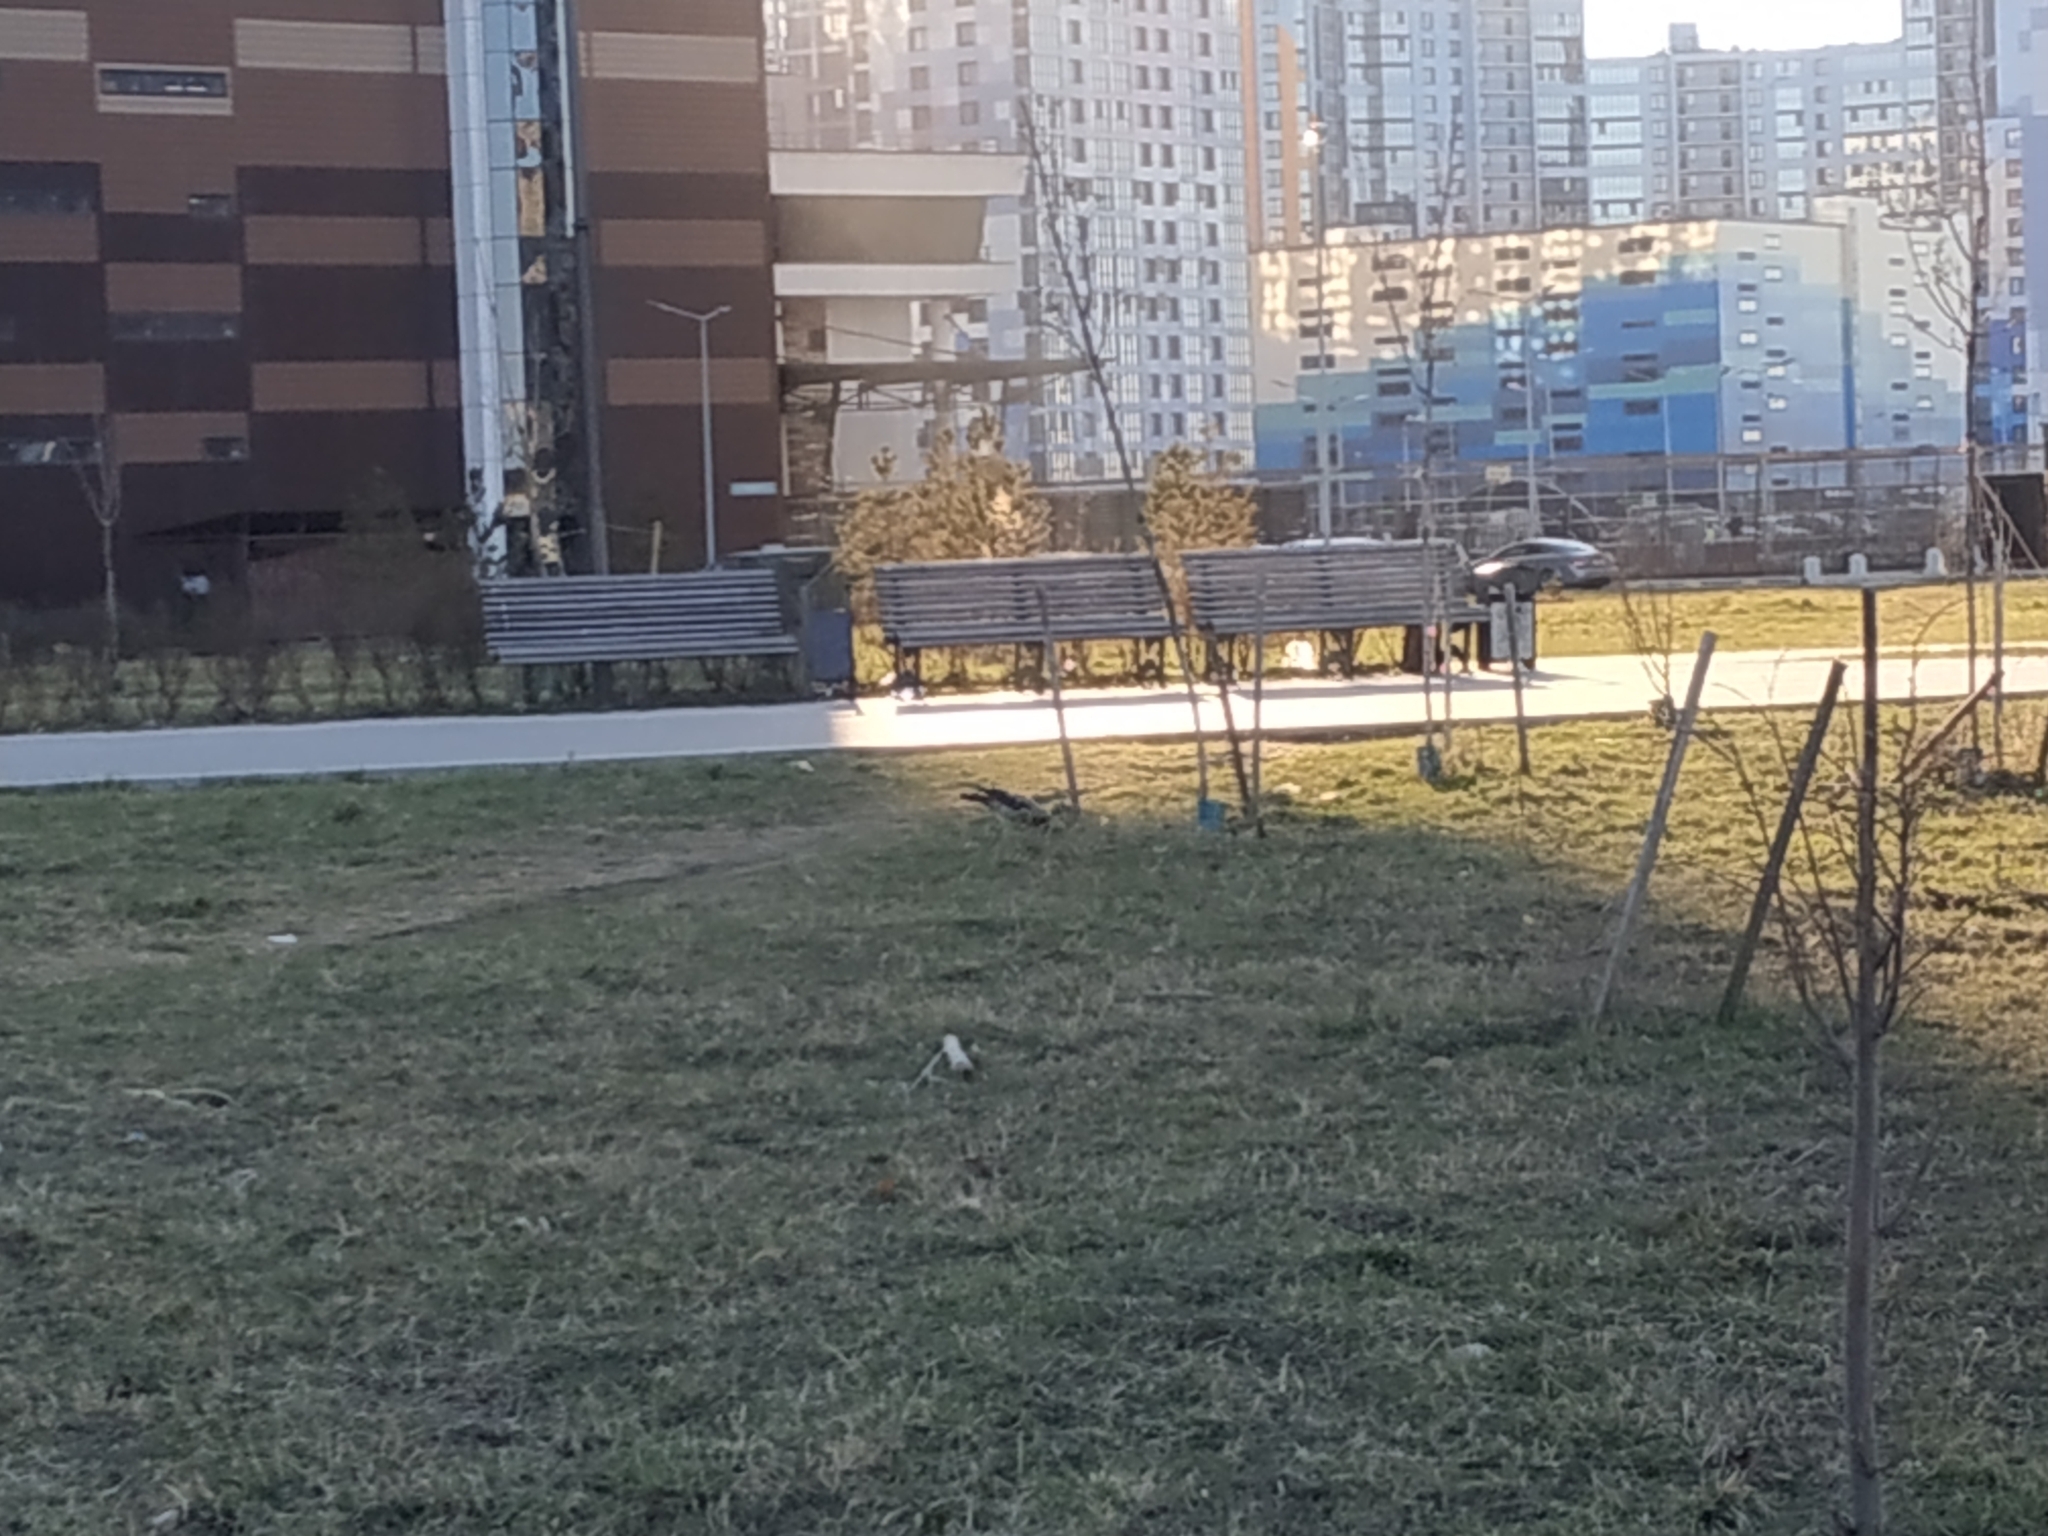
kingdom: Animalia
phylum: Chordata
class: Aves
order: Passeriformes
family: Corvidae
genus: Corvus
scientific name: Corvus cornix
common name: Hooded crow
